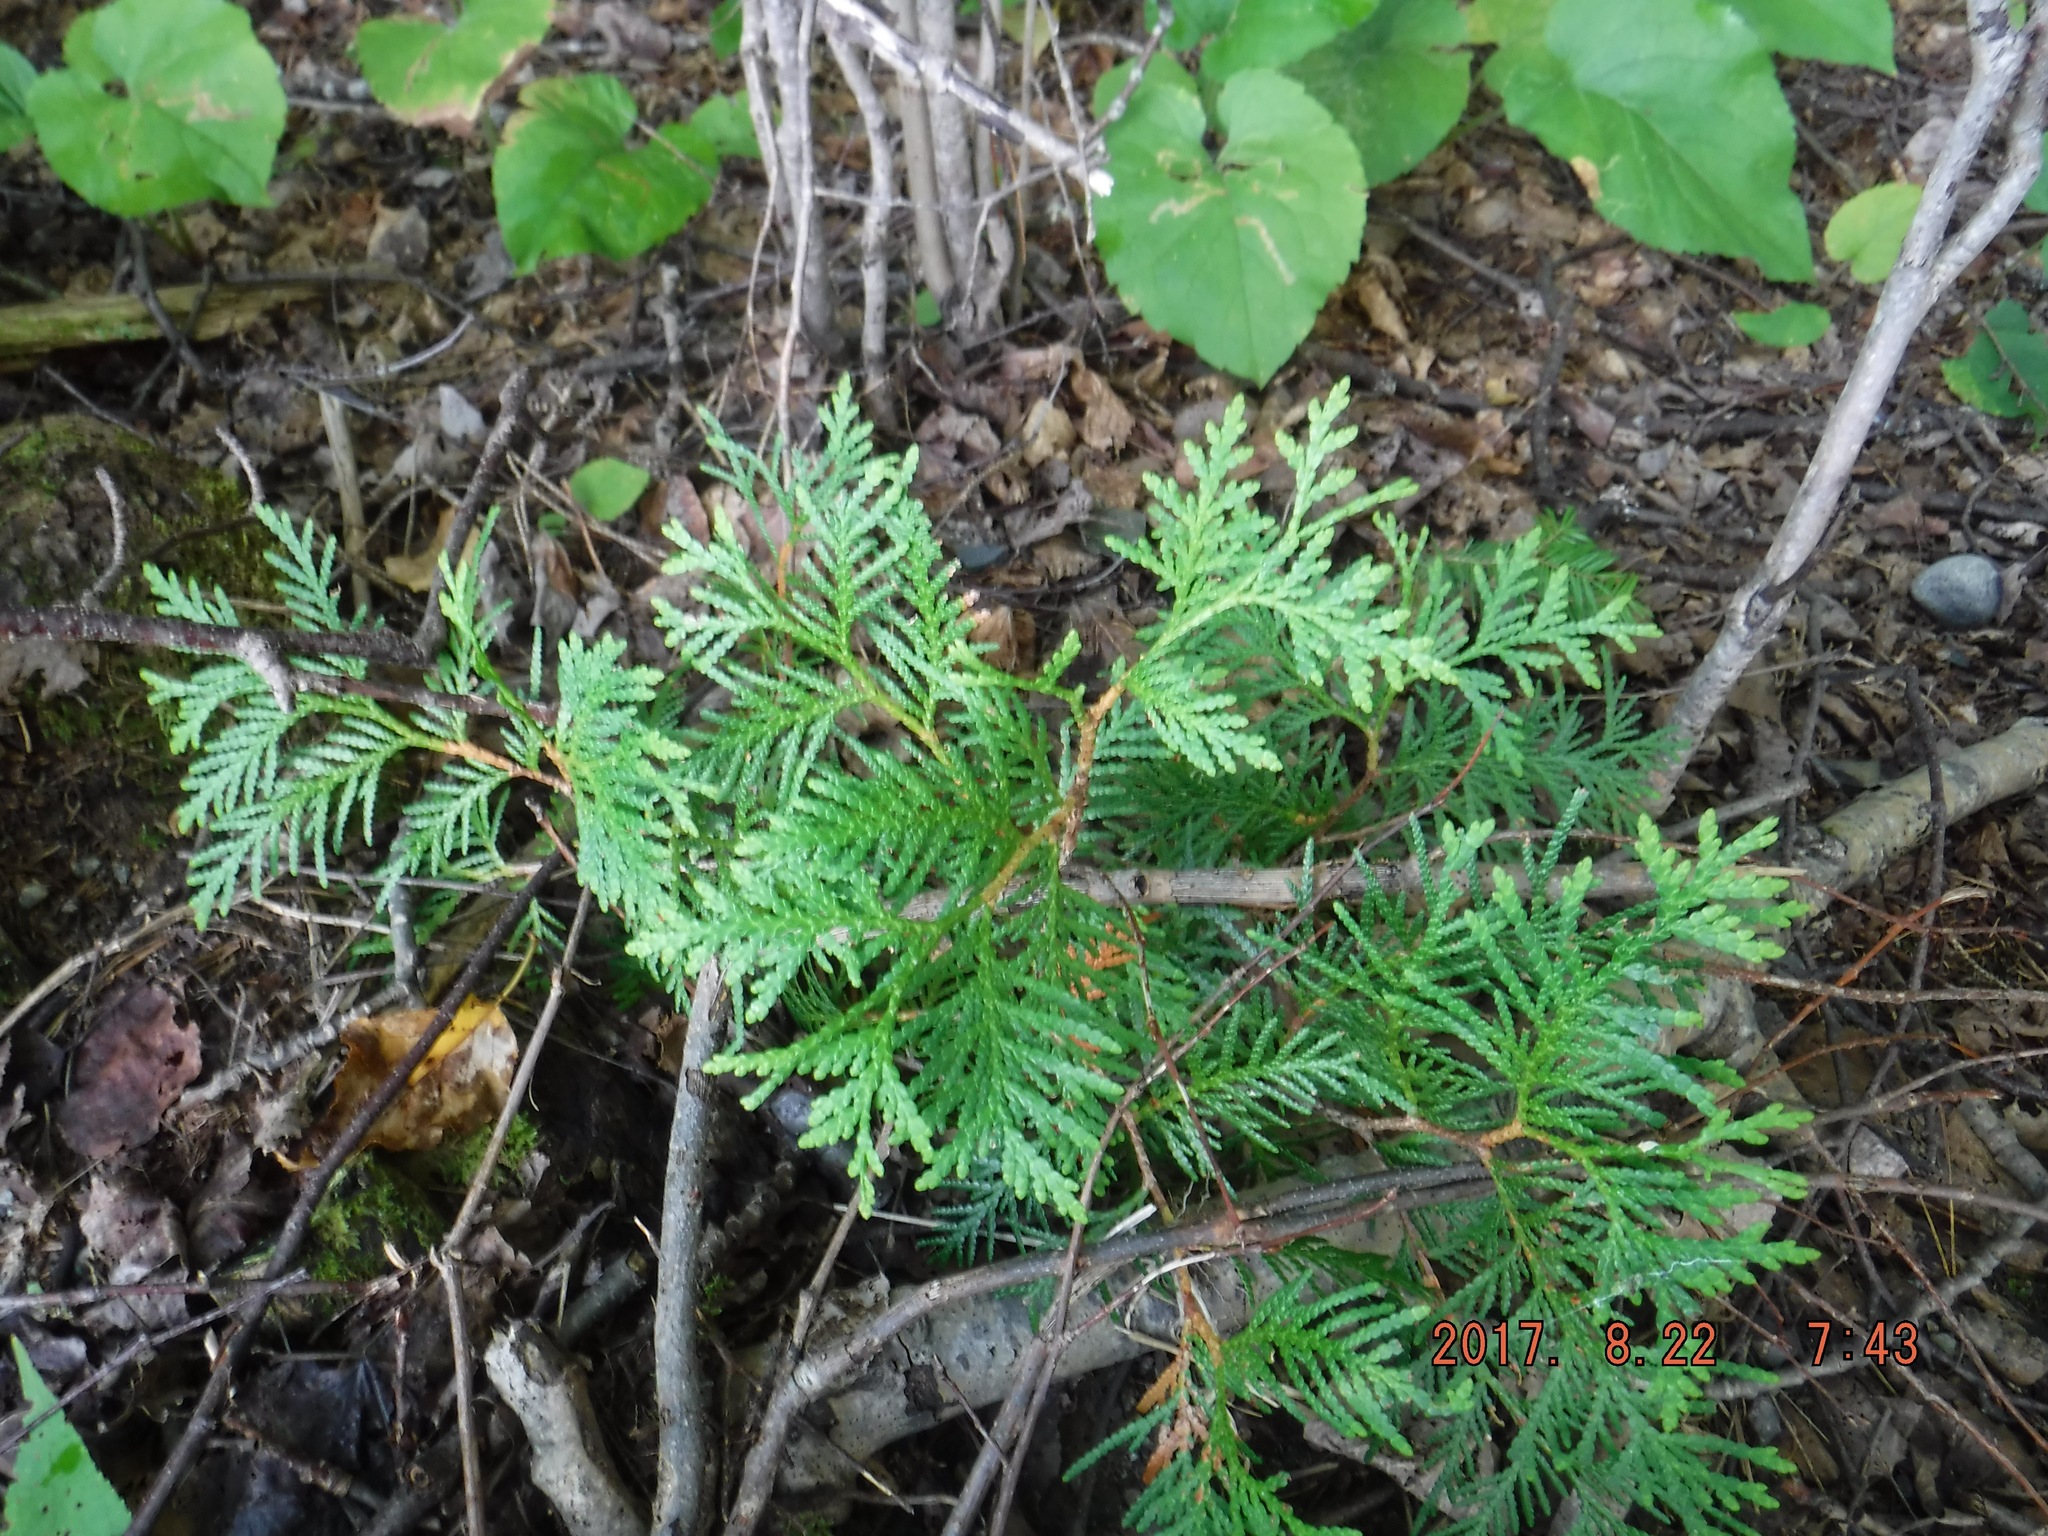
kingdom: Plantae
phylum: Tracheophyta
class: Pinopsida
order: Pinales
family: Cupressaceae
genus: Thuja
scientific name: Thuja occidentalis
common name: Northern white-cedar
